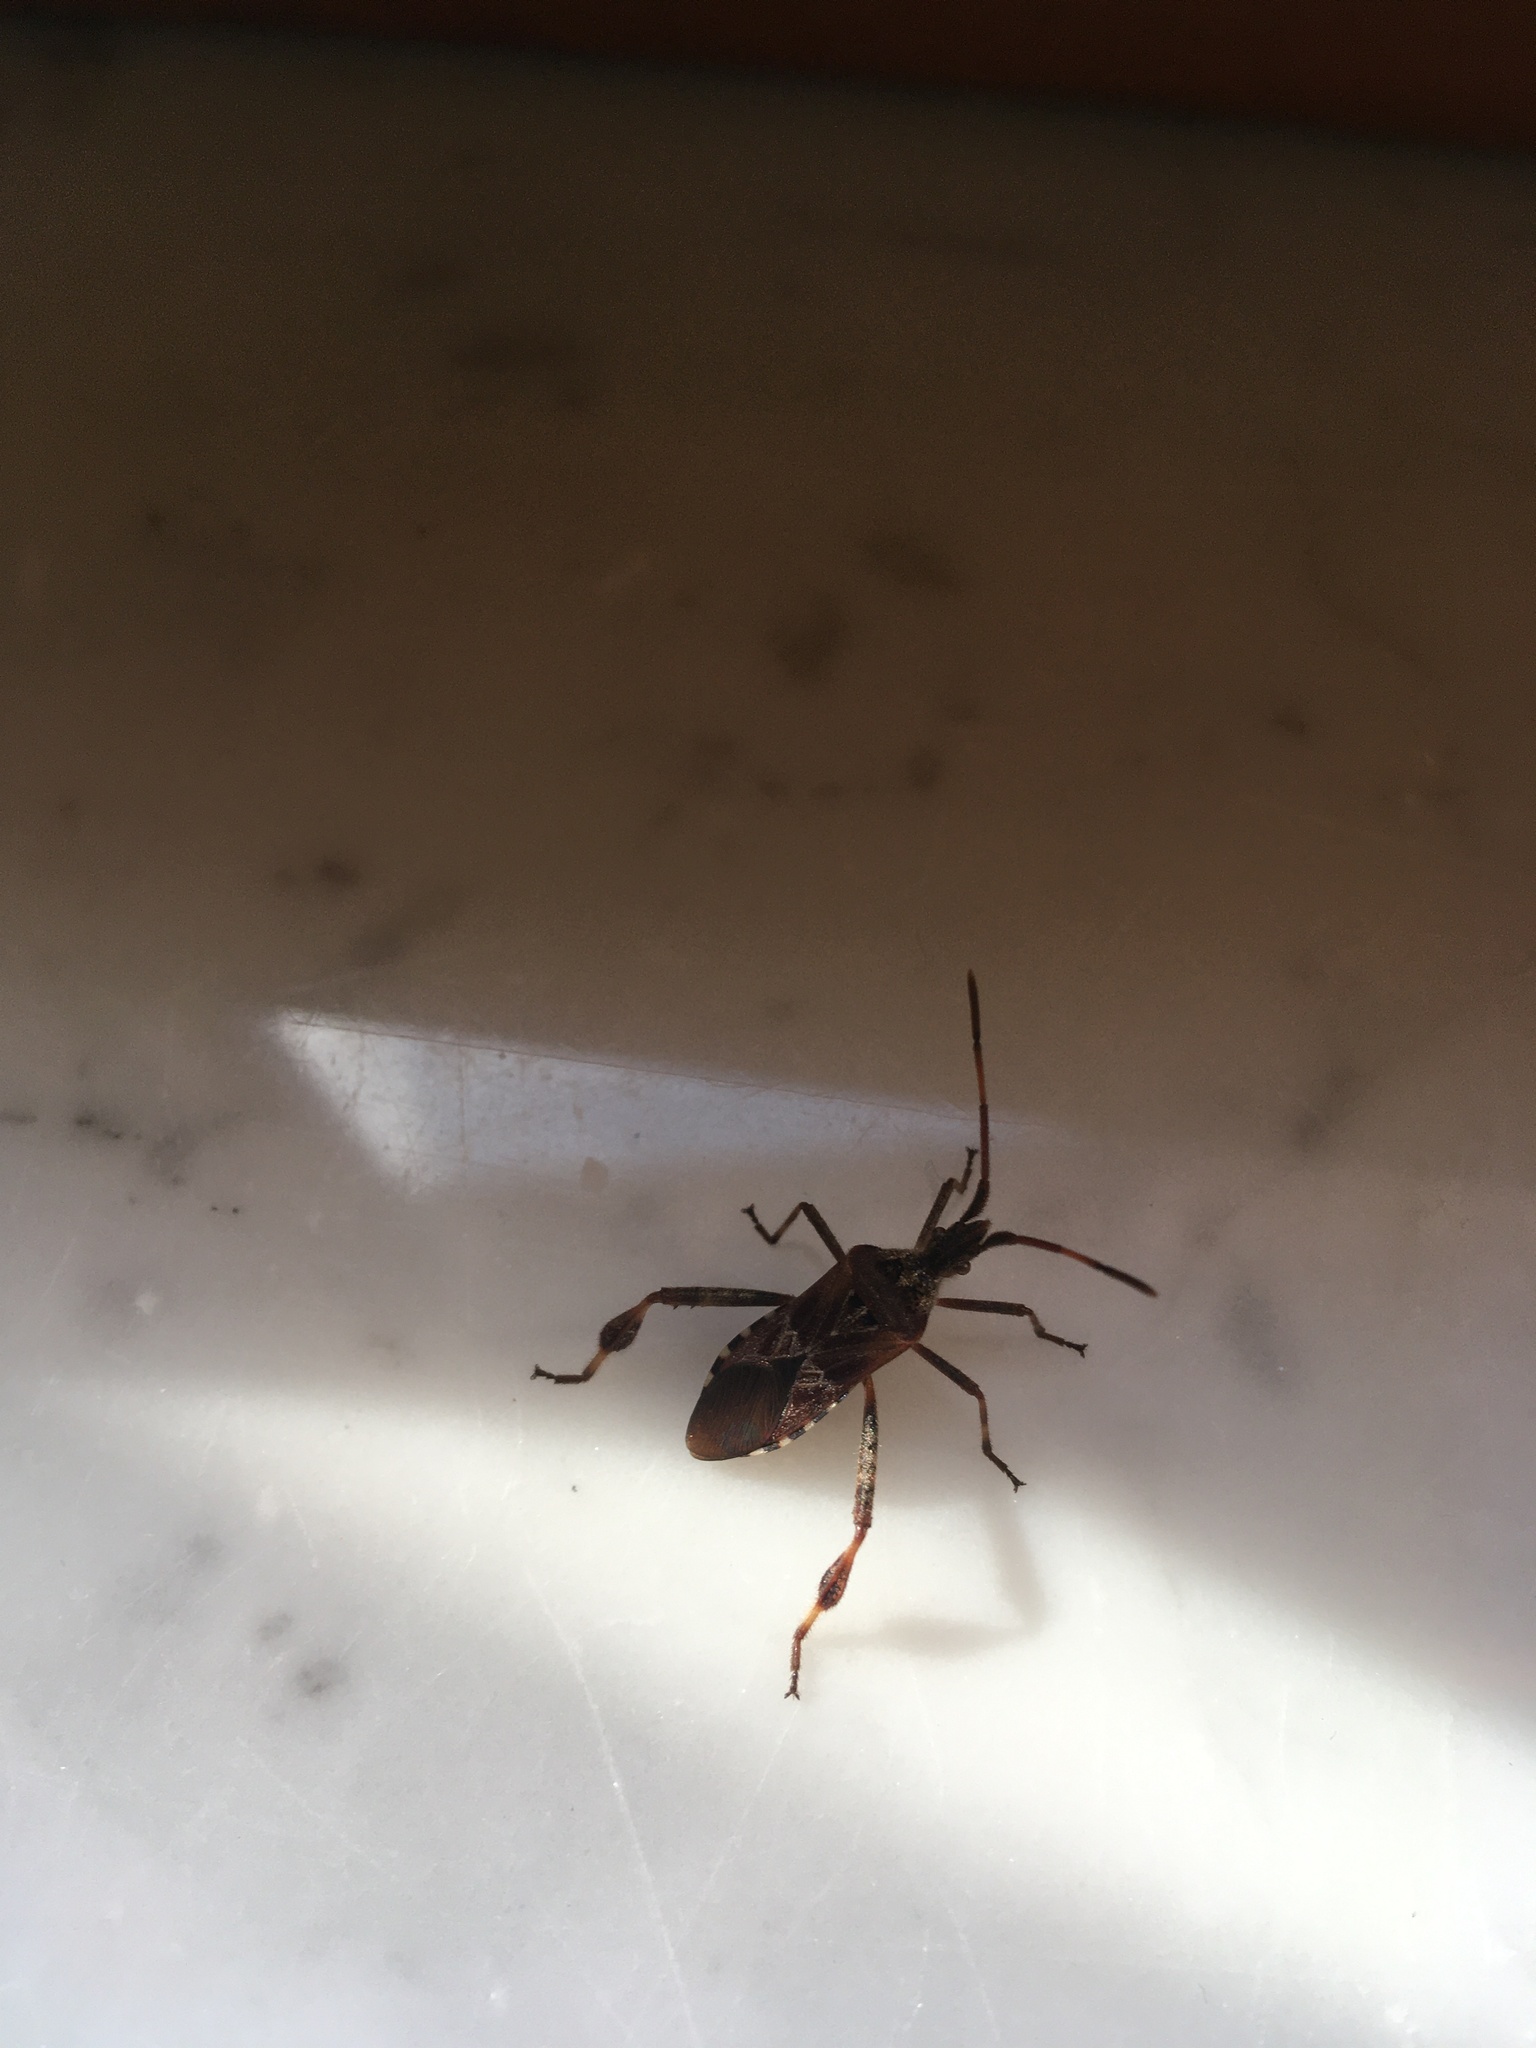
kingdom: Animalia
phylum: Arthropoda
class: Insecta
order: Hemiptera
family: Coreidae
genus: Leptoglossus
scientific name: Leptoglossus occidentalis
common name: Western conifer-seed bug
